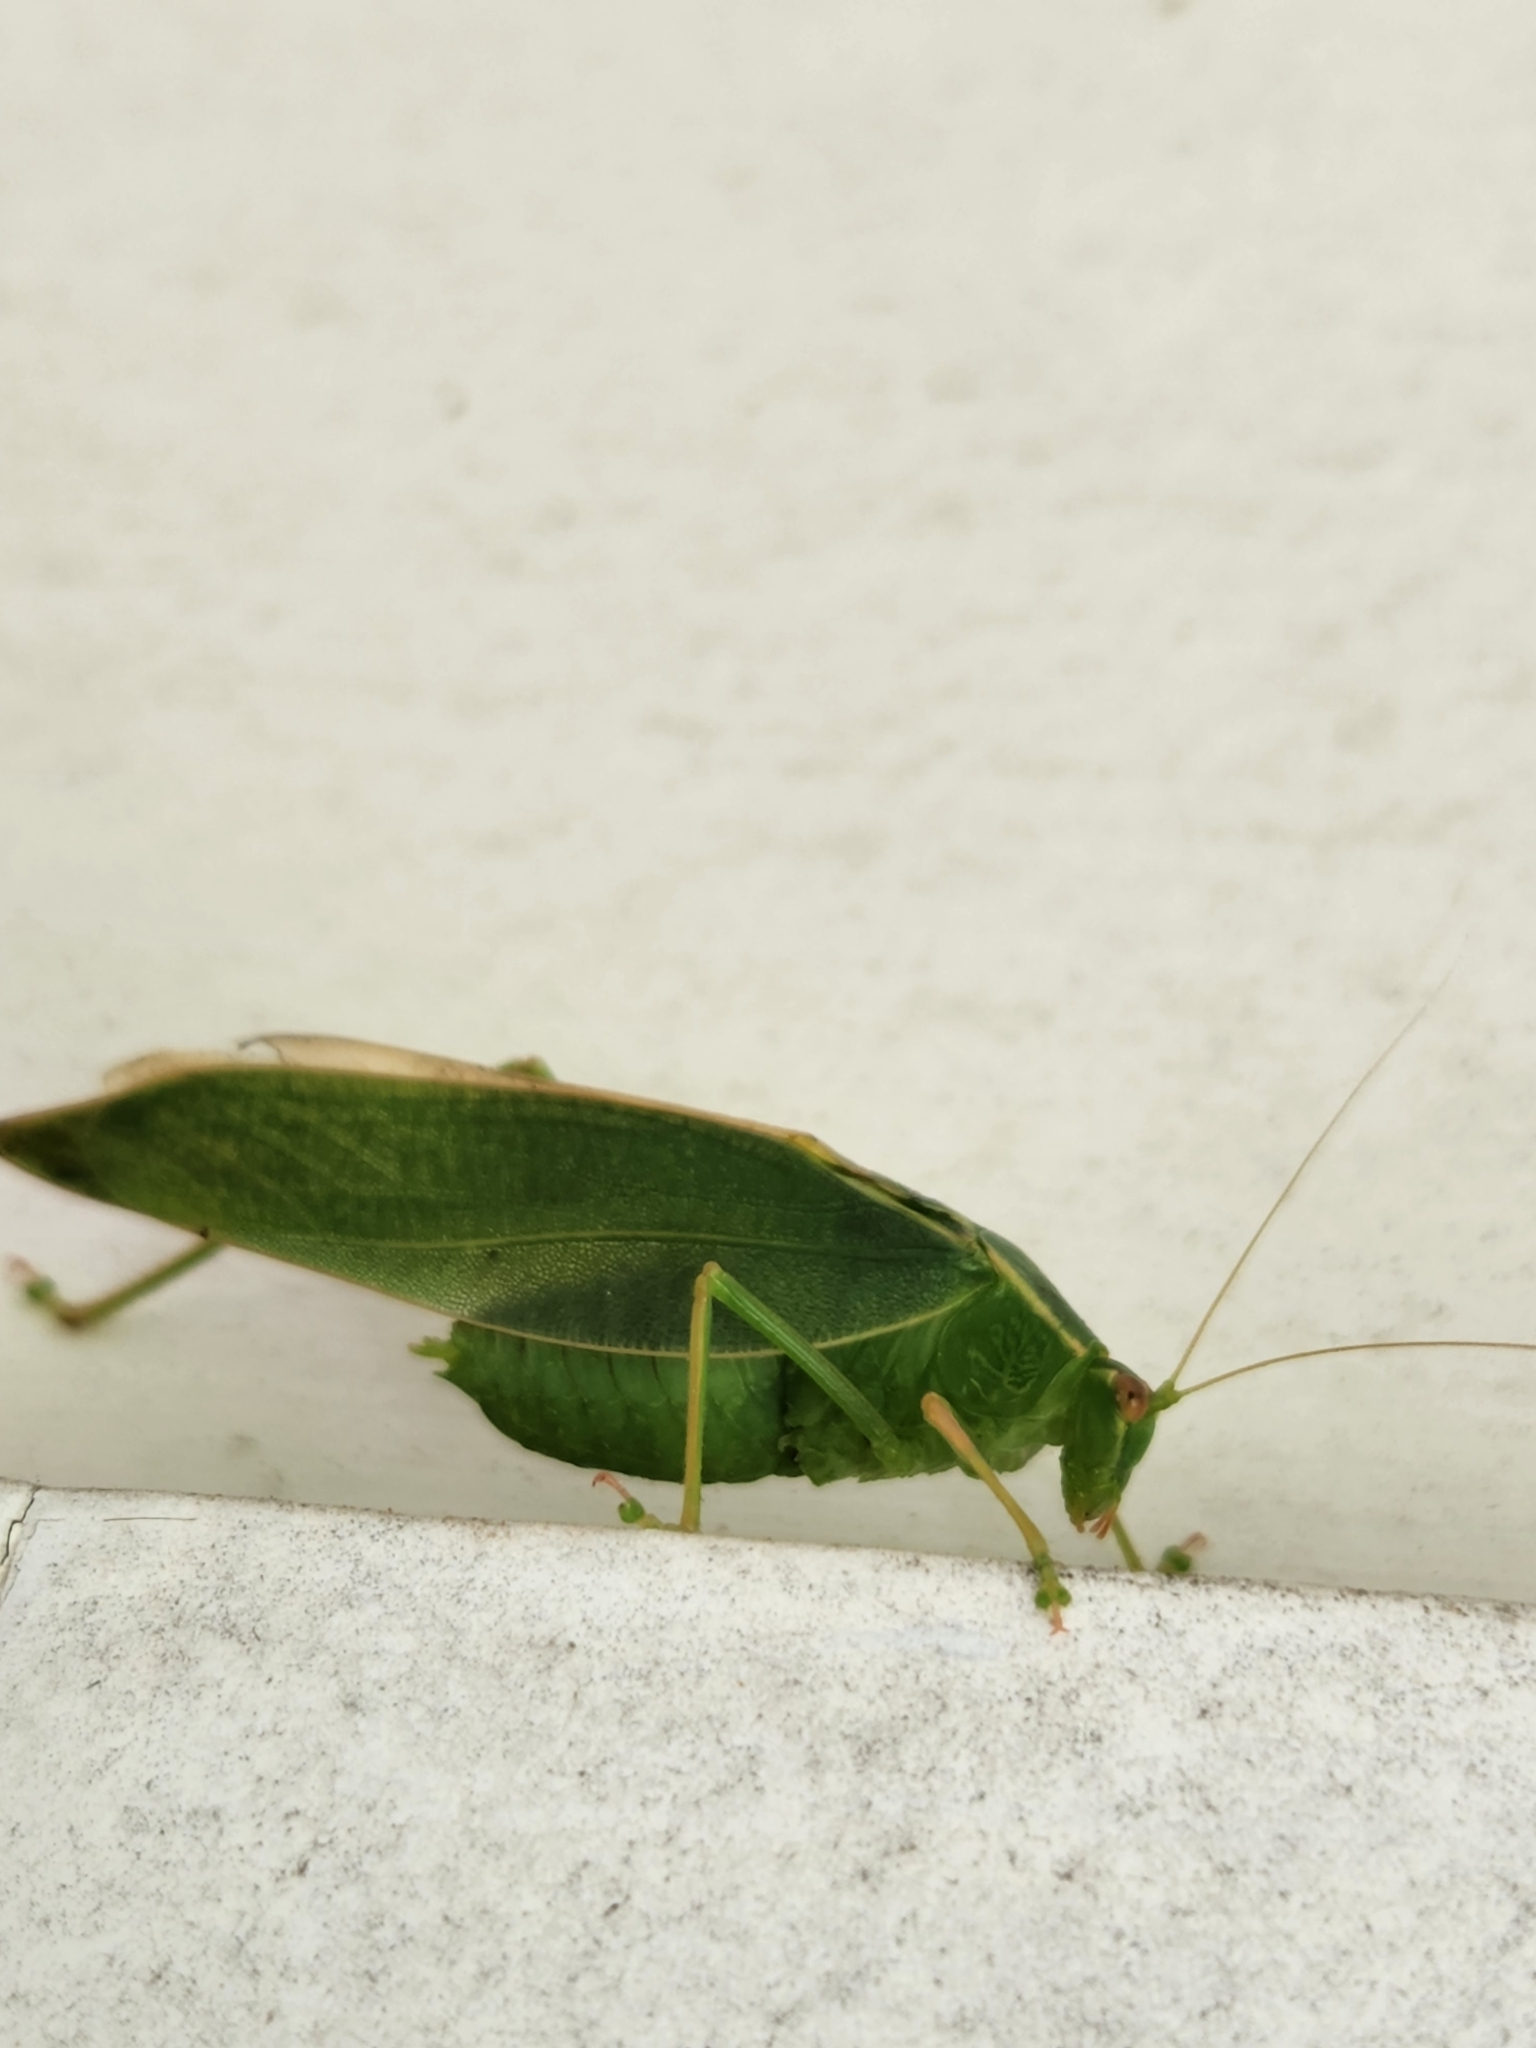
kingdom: Animalia
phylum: Arthropoda
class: Insecta
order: Orthoptera
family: Tettigoniidae
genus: Caedicia
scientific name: Caedicia simplex
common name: Common garden katydid
